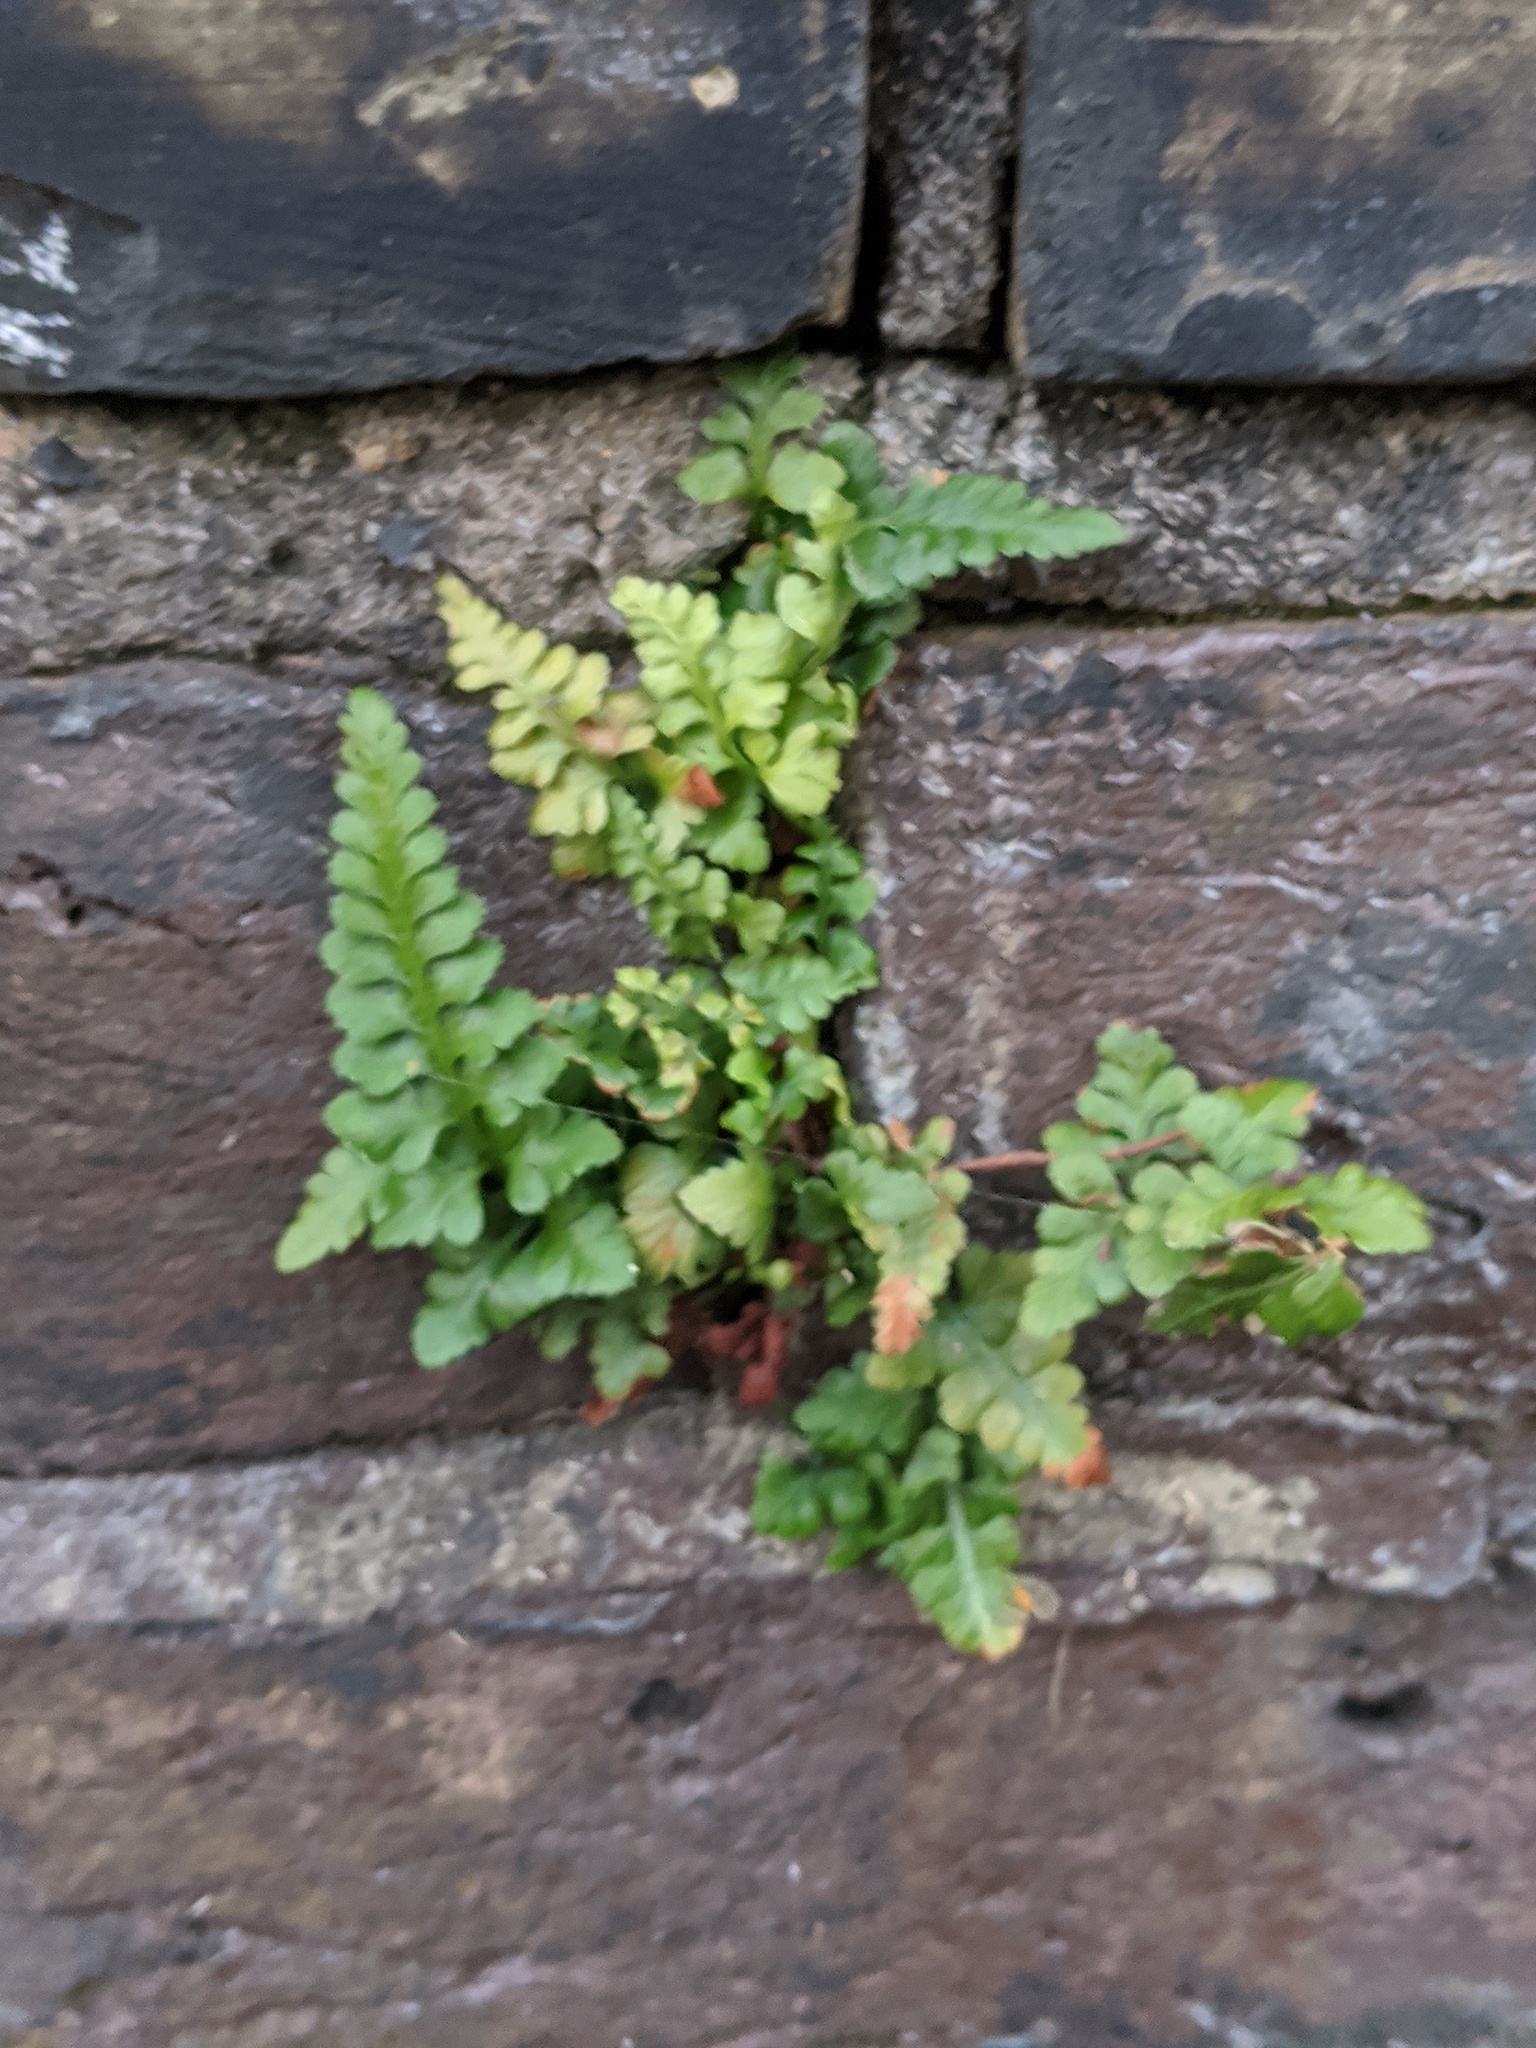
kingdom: Plantae
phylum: Tracheophyta
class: Polypodiopsida
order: Polypodiales
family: Aspleniaceae
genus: Asplenium
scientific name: Asplenium adiantum-nigrum
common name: Black spleenwort
